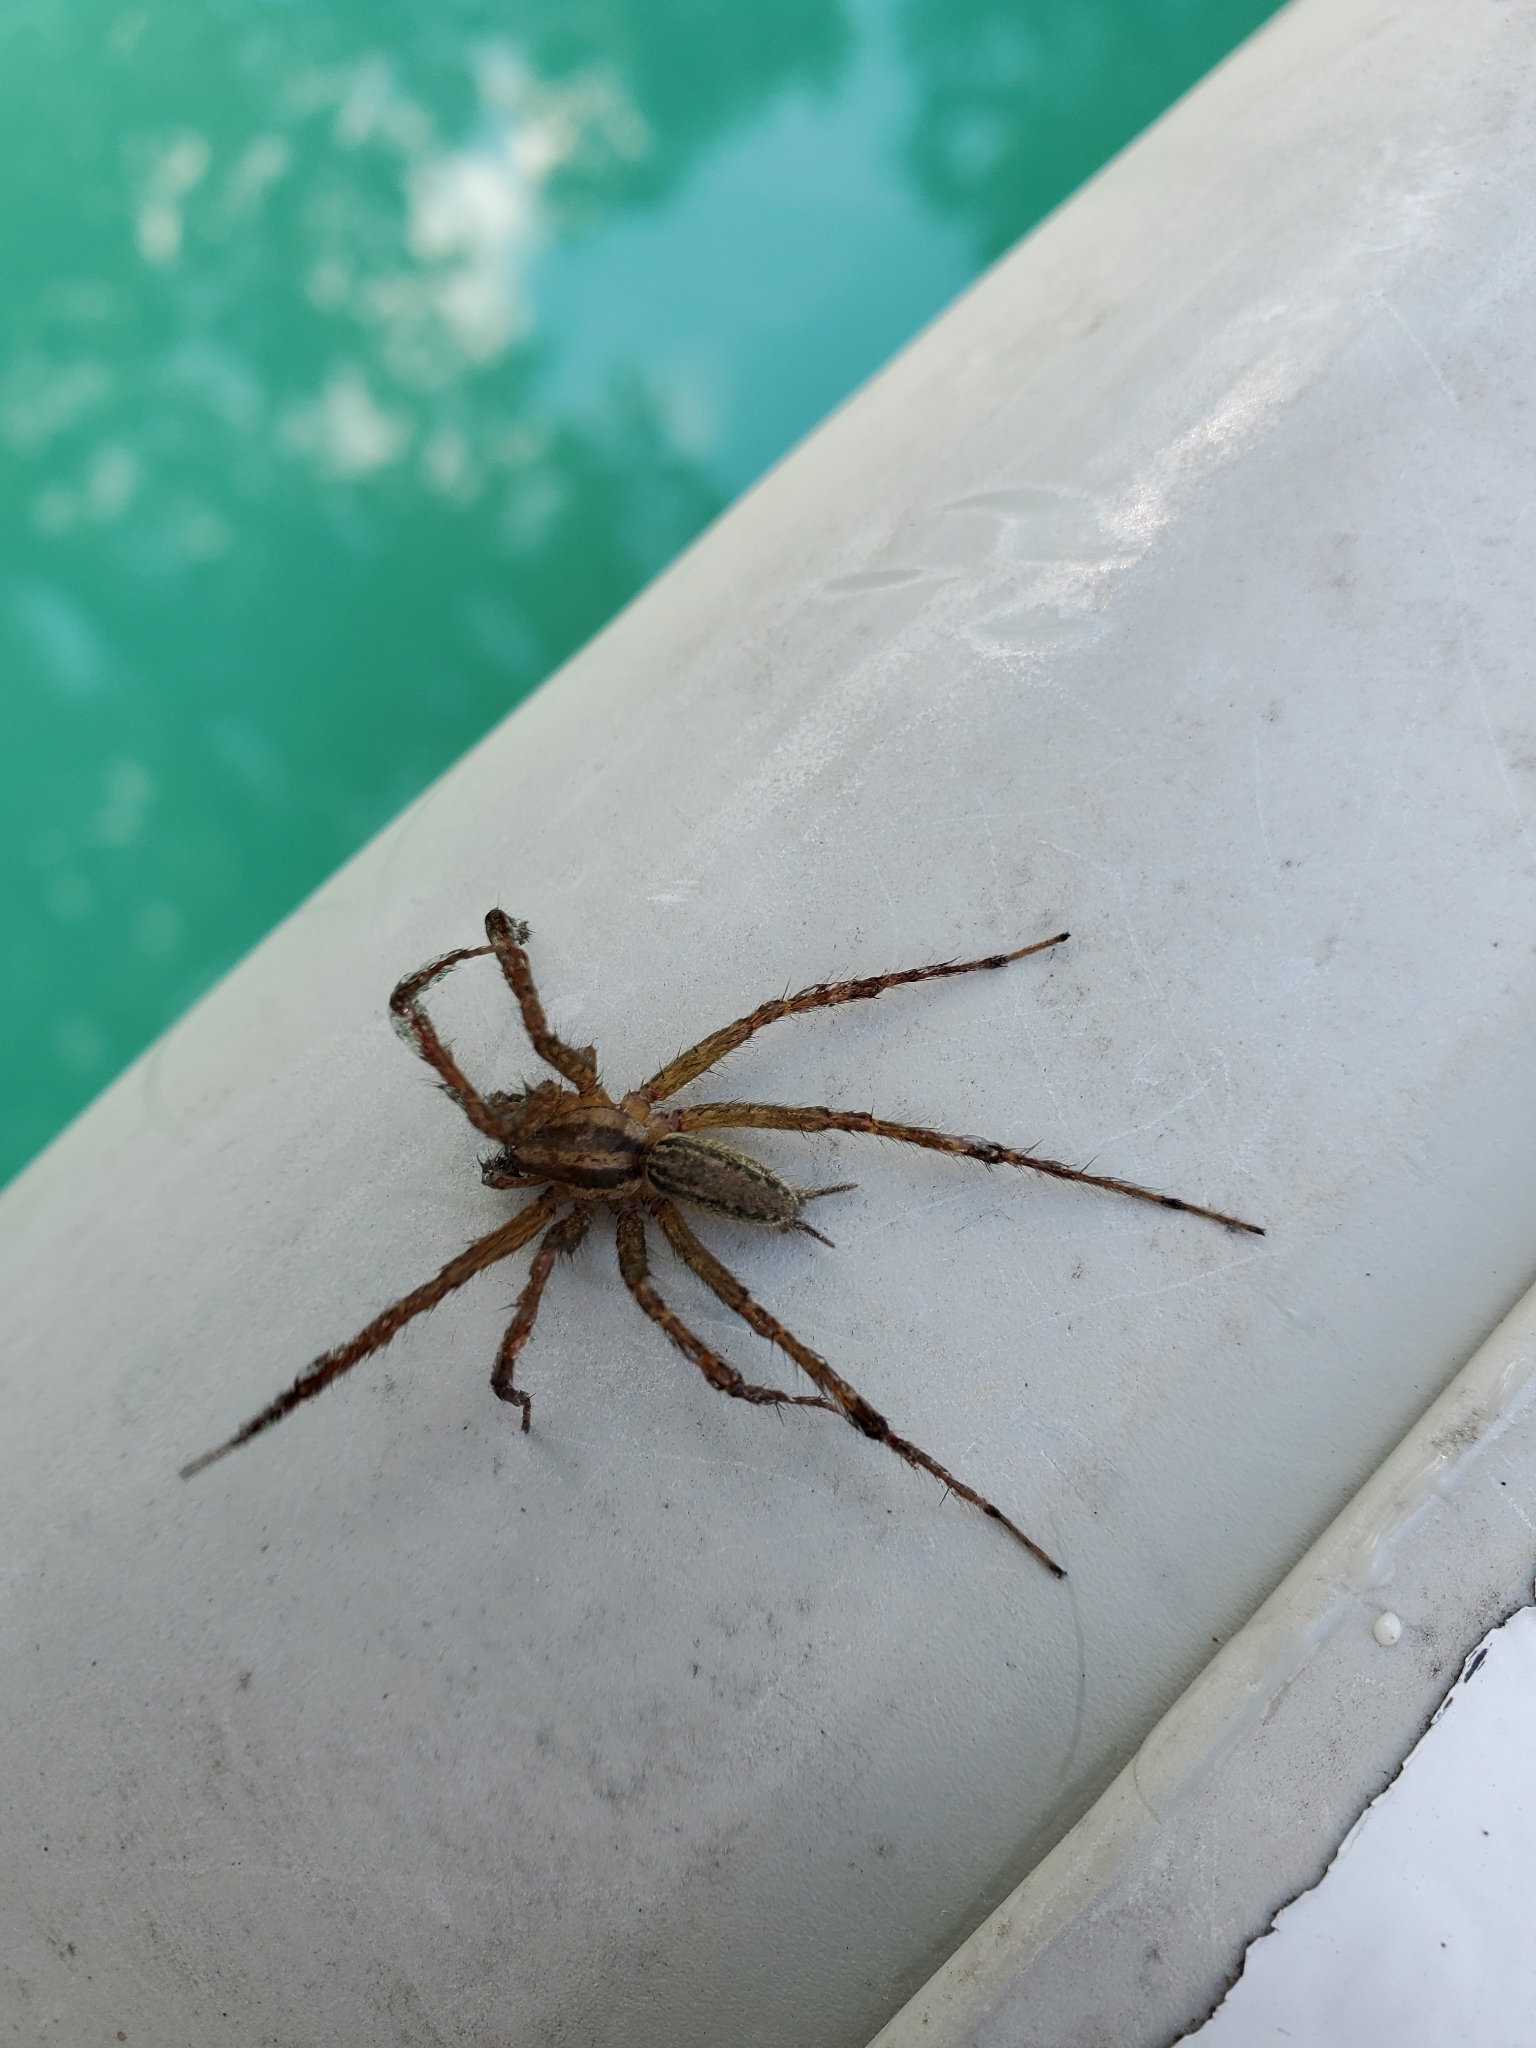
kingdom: Animalia
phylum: Arthropoda
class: Arachnida
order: Araneae
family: Agelenidae
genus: Agelenopsis
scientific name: Agelenopsis
